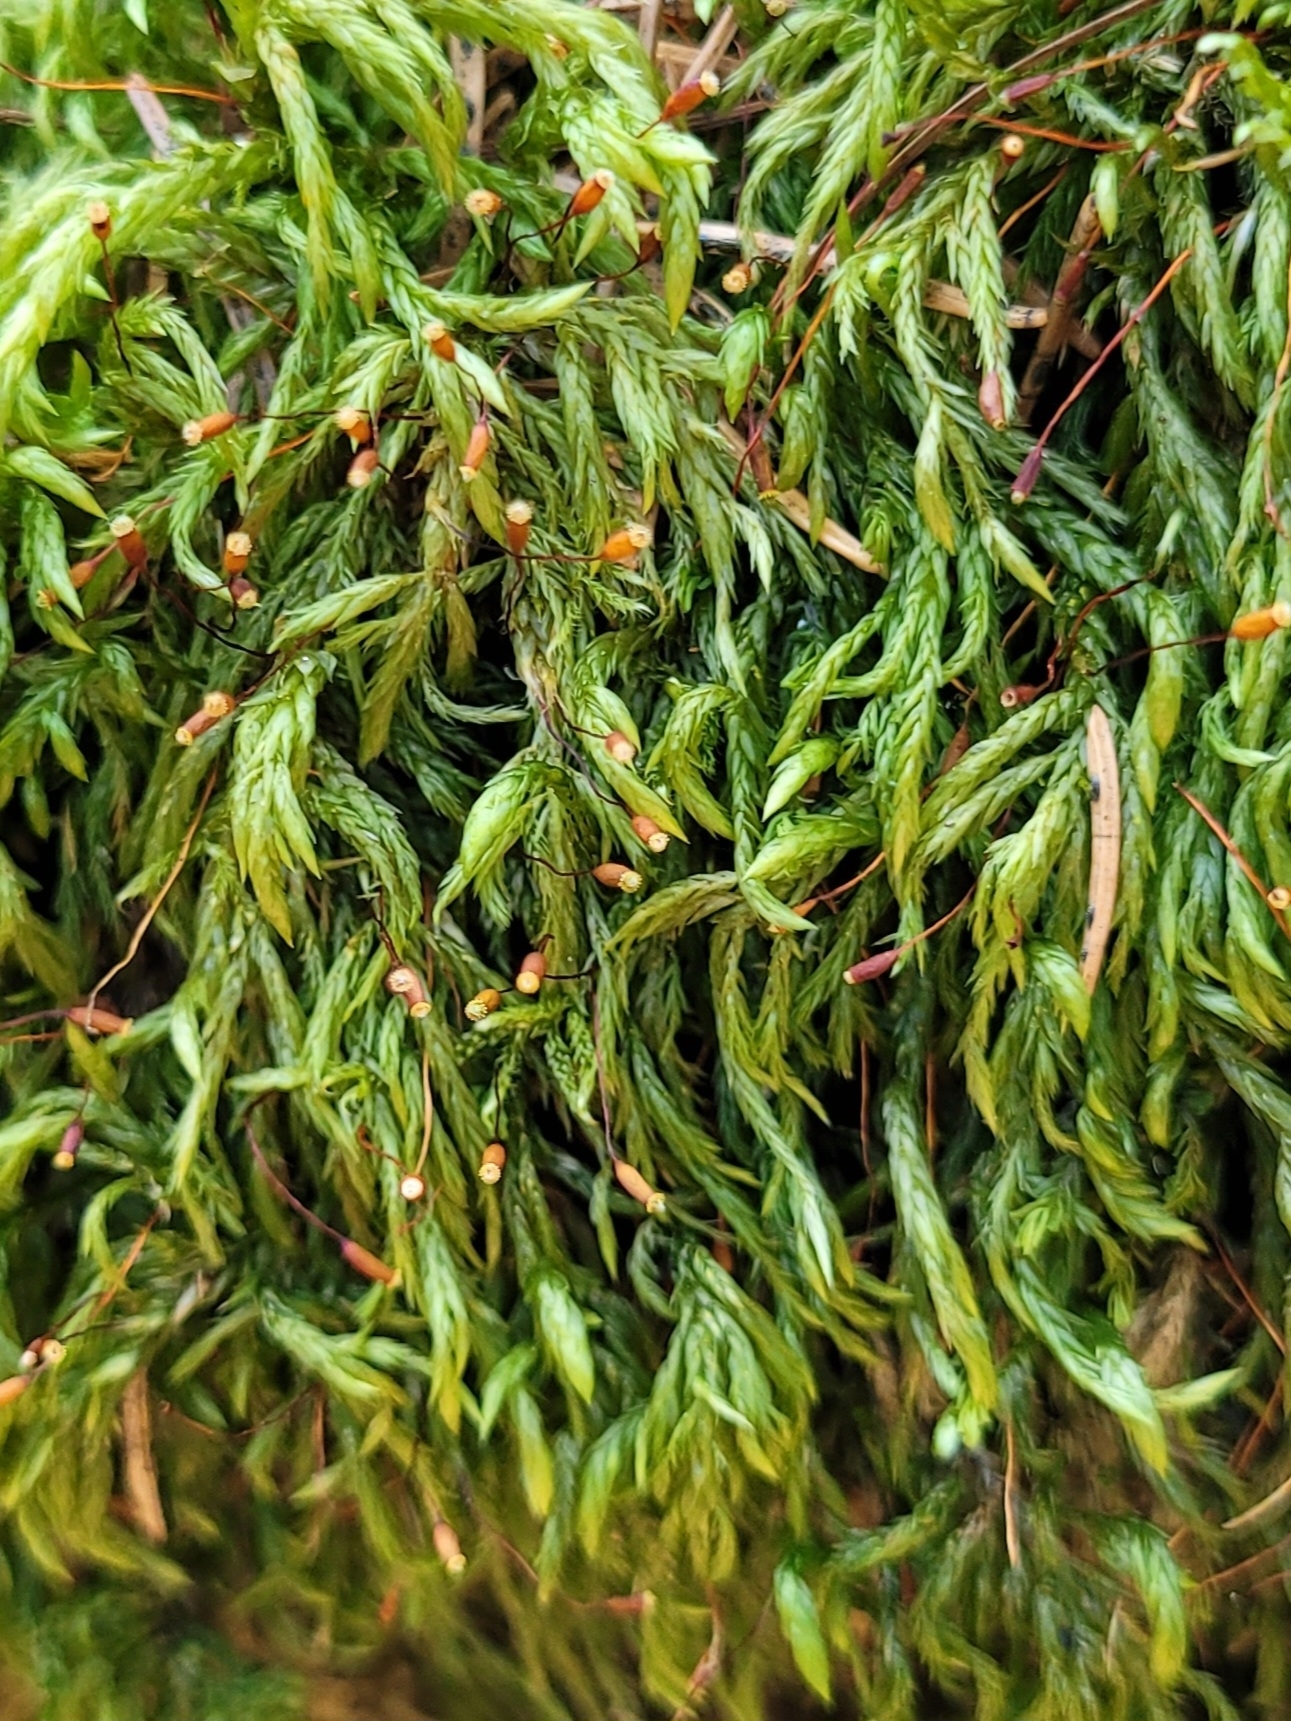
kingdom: Plantae
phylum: Bryophyta
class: Bryopsida
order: Hypnales
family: Lembophyllaceae
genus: Isothecium
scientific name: Isothecium alopecuroides
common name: Larger mouse-tail moss
